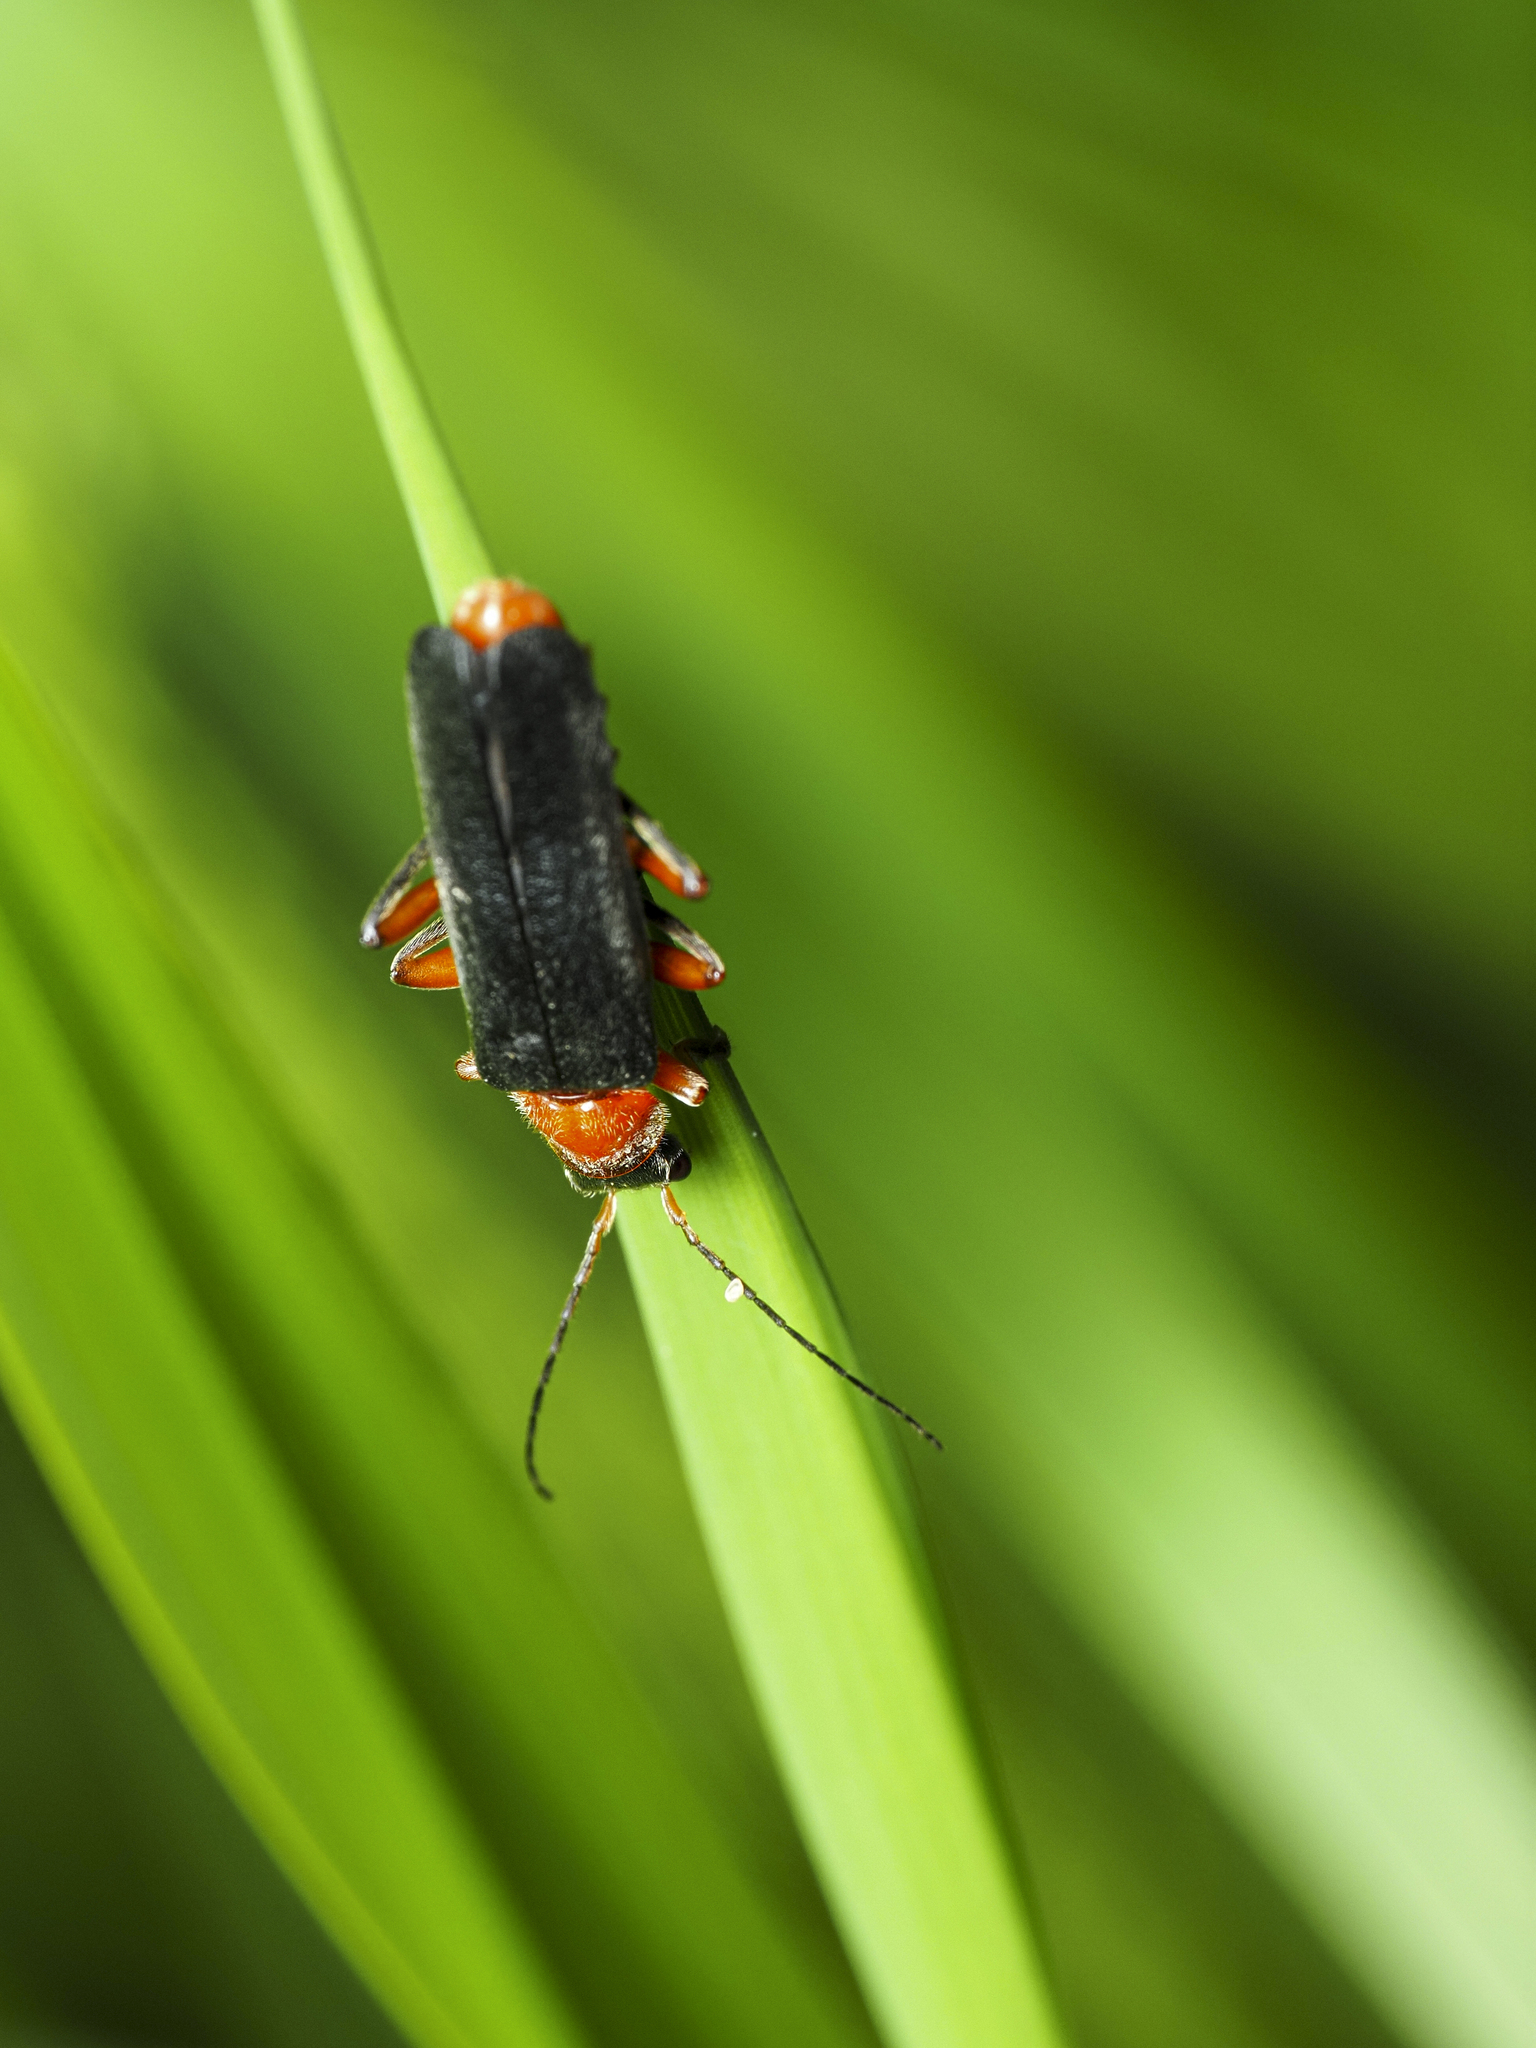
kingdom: Animalia
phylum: Arthropoda
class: Insecta
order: Coleoptera
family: Cantharidae
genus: Cantharis
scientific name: Cantharis pellucida
